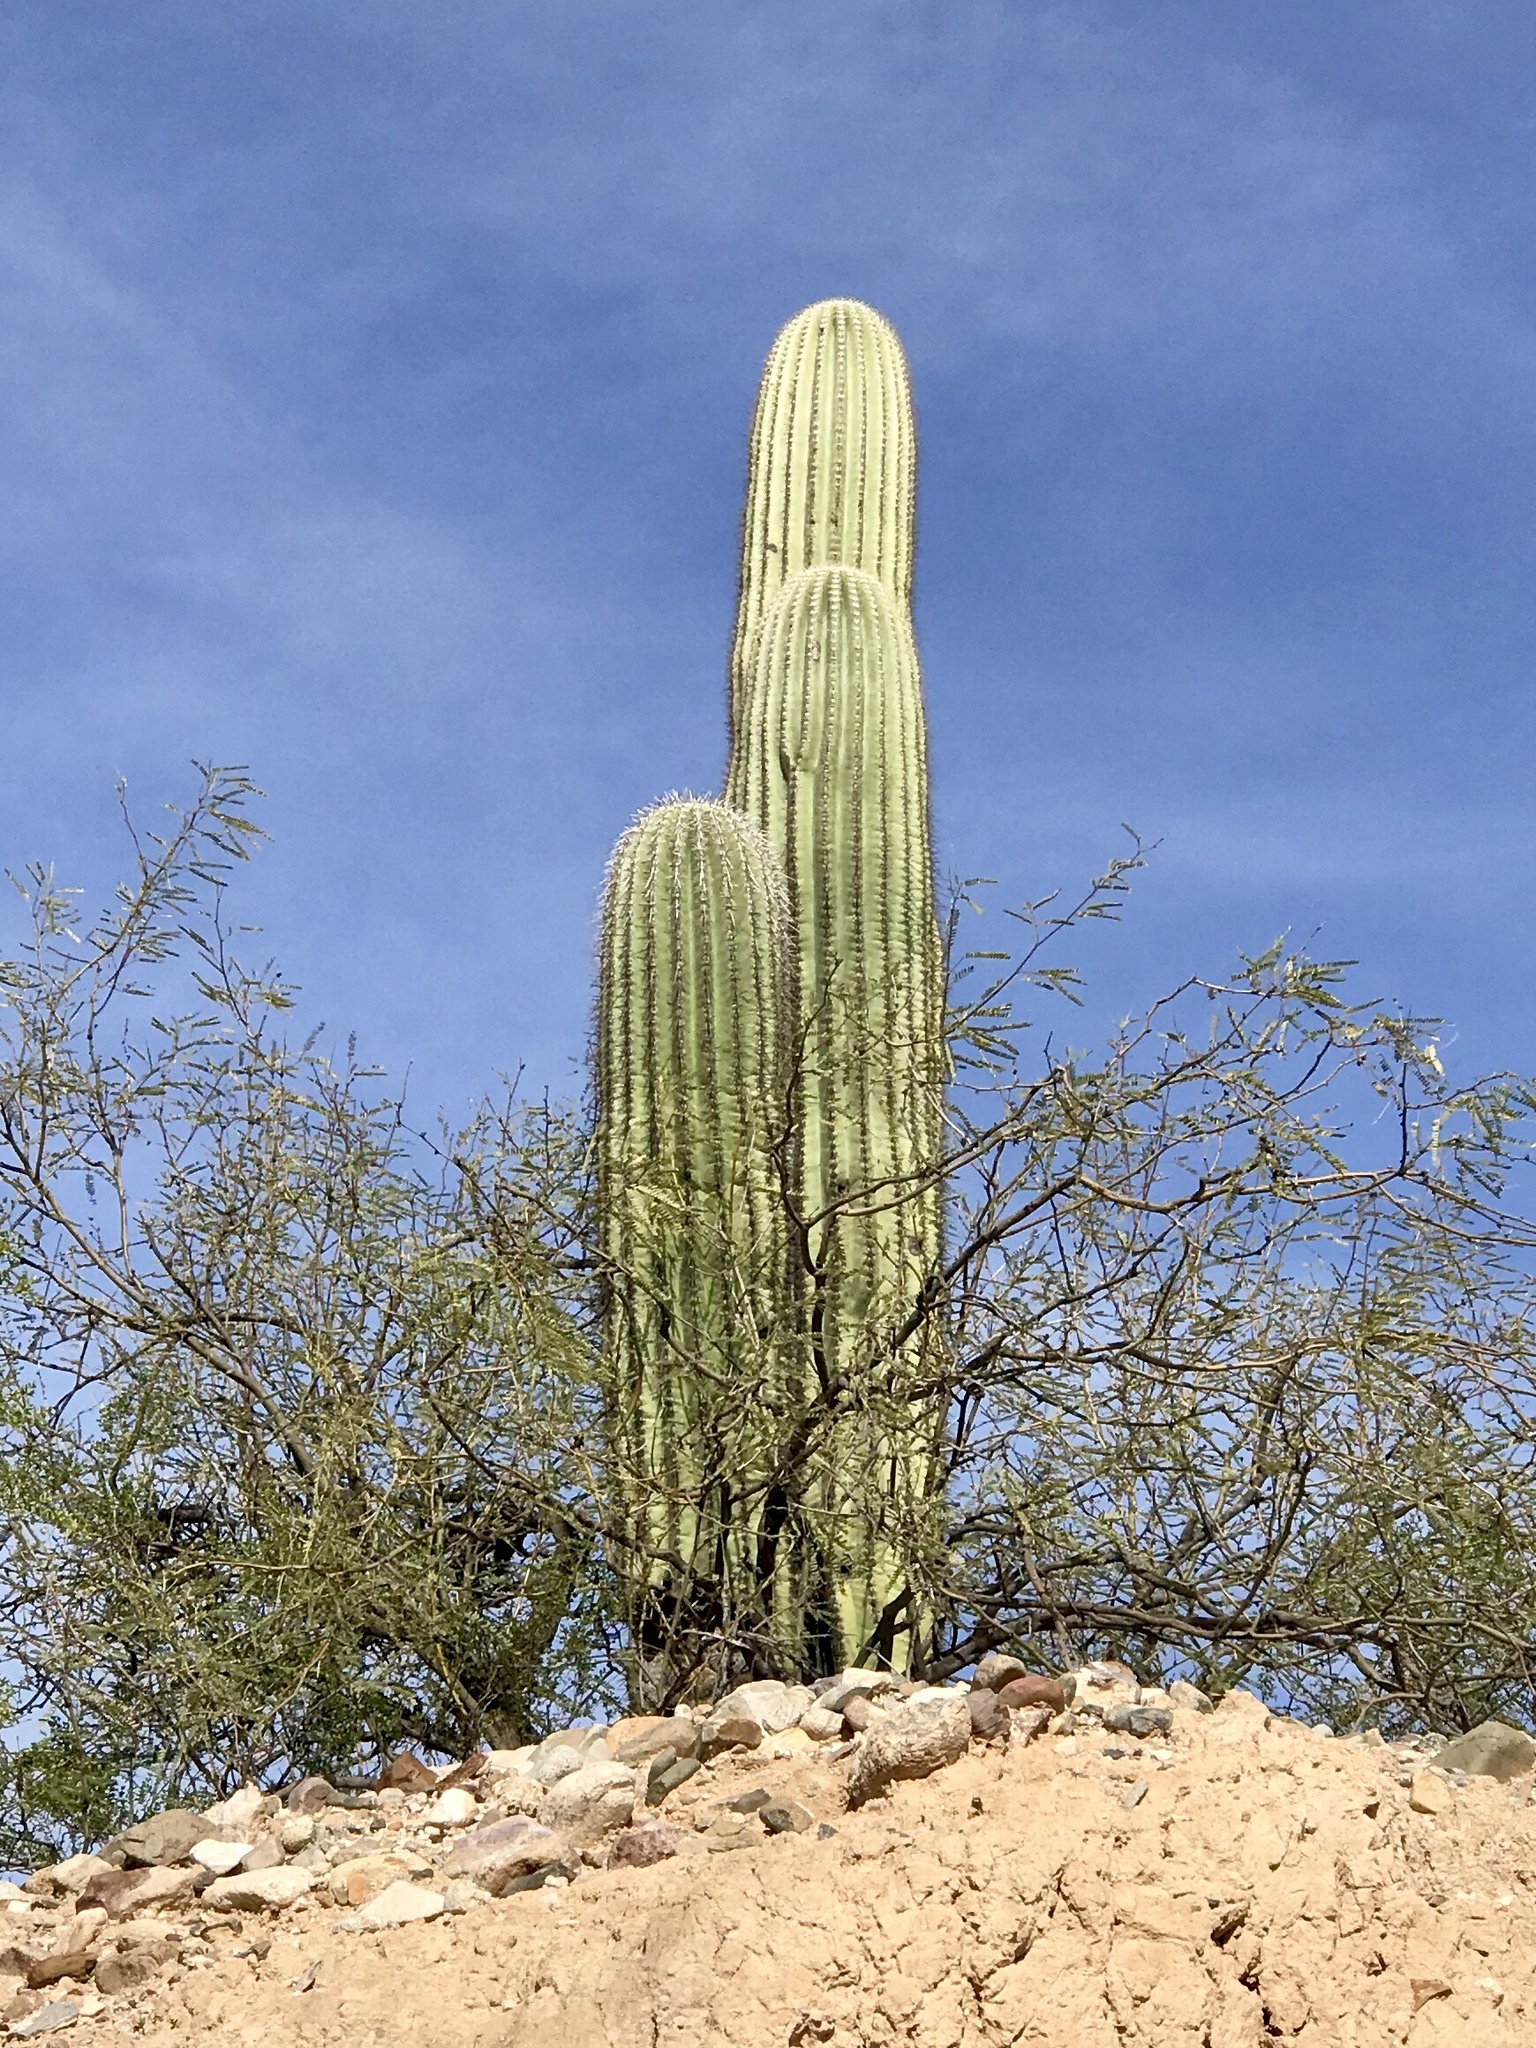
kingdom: Plantae
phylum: Tracheophyta
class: Magnoliopsida
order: Caryophyllales
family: Cactaceae
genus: Carnegiea
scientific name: Carnegiea gigantea
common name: Saguaro
